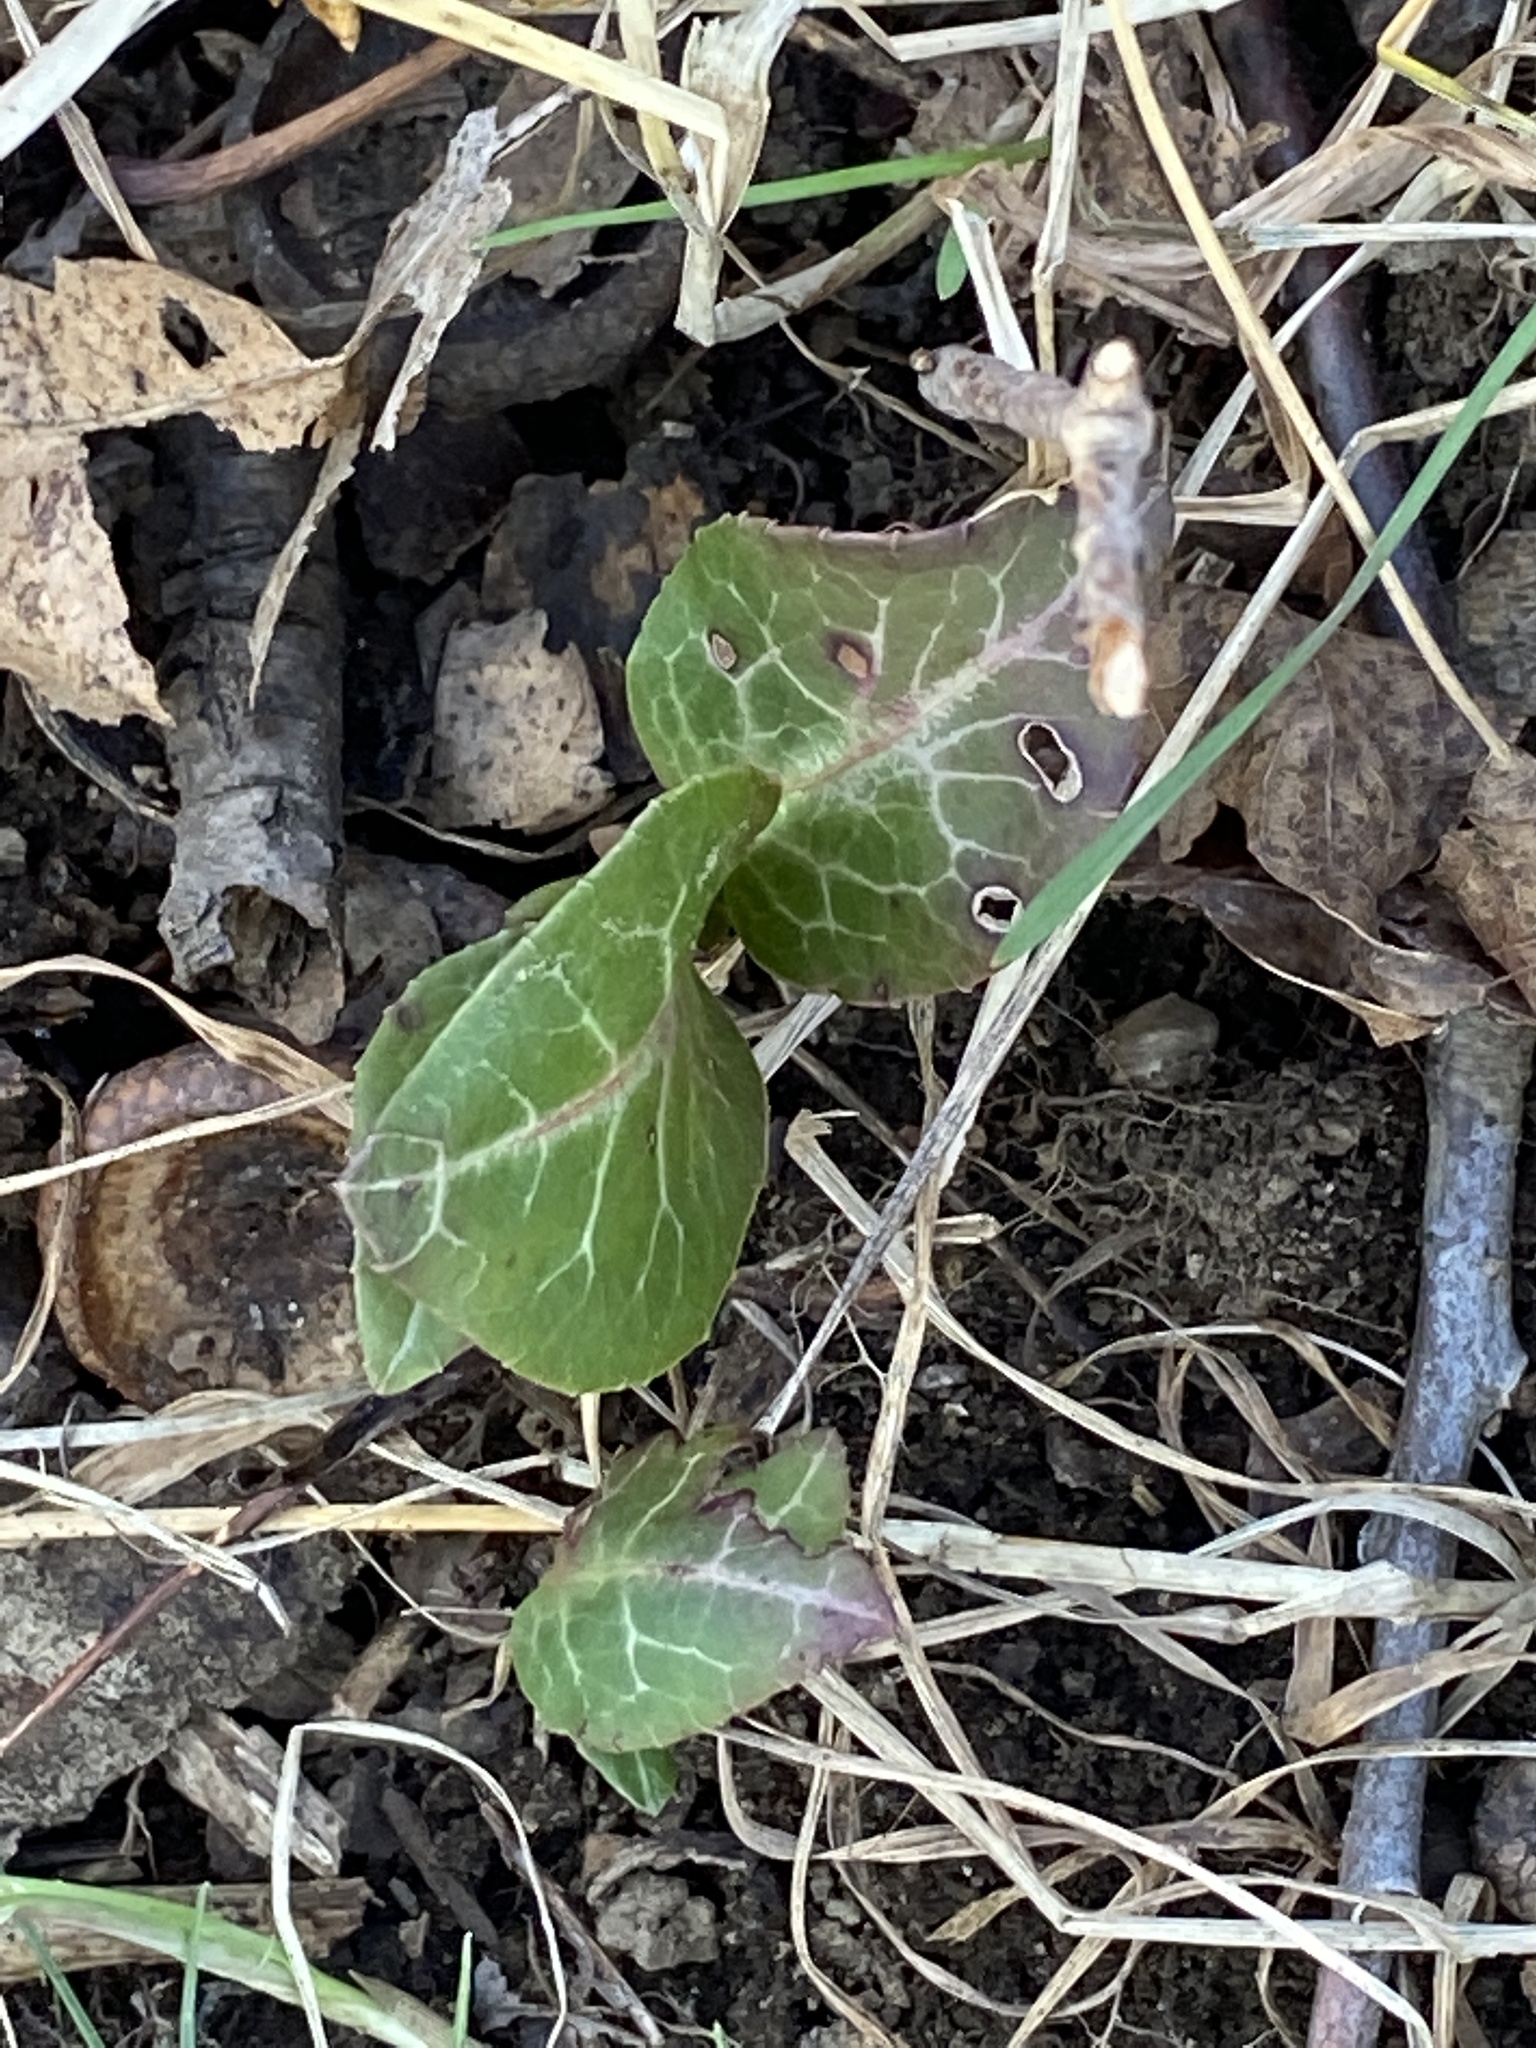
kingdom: Plantae
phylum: Tracheophyta
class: Magnoliopsida
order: Ericales
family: Ericaceae
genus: Pyrola
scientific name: Pyrola americana
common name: American wintergreen
